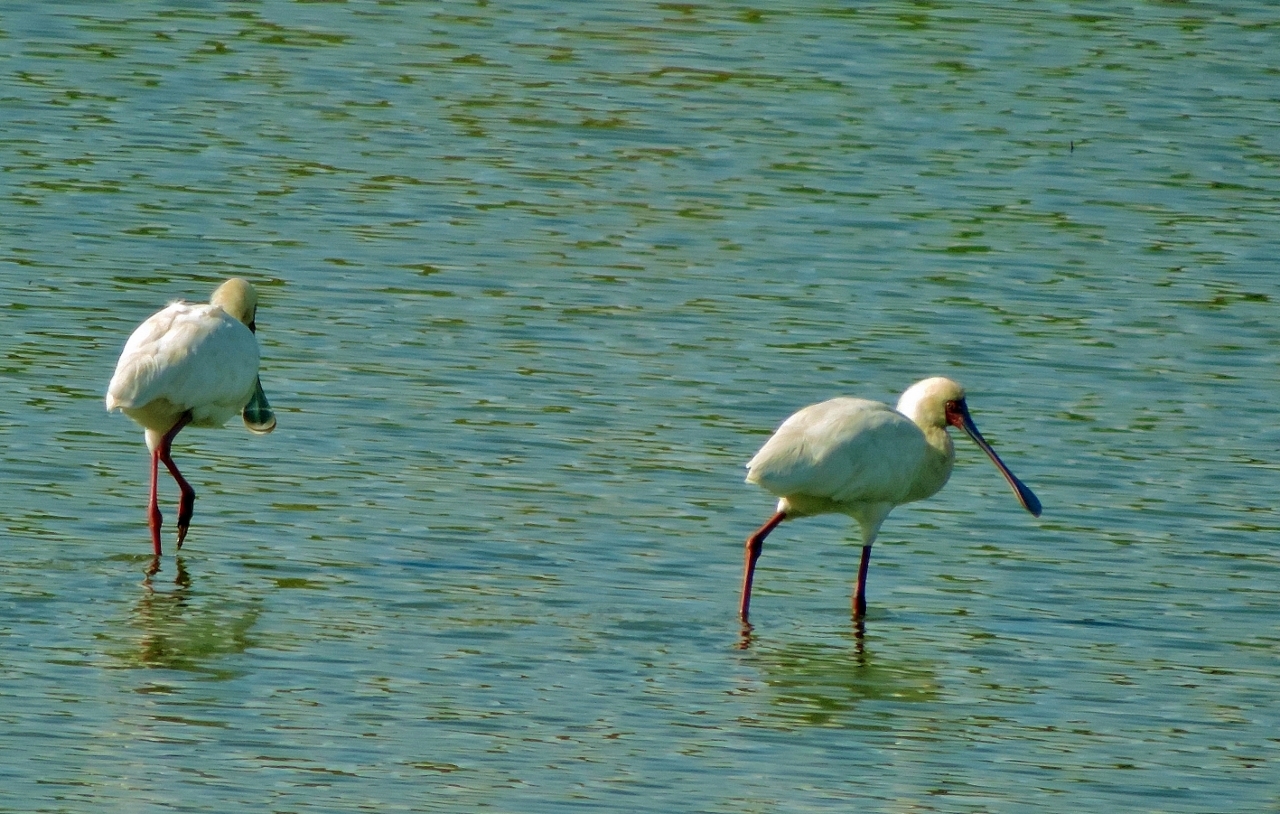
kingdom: Animalia
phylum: Chordata
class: Aves
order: Pelecaniformes
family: Threskiornithidae
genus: Platalea
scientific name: Platalea alba
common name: African spoonbill
